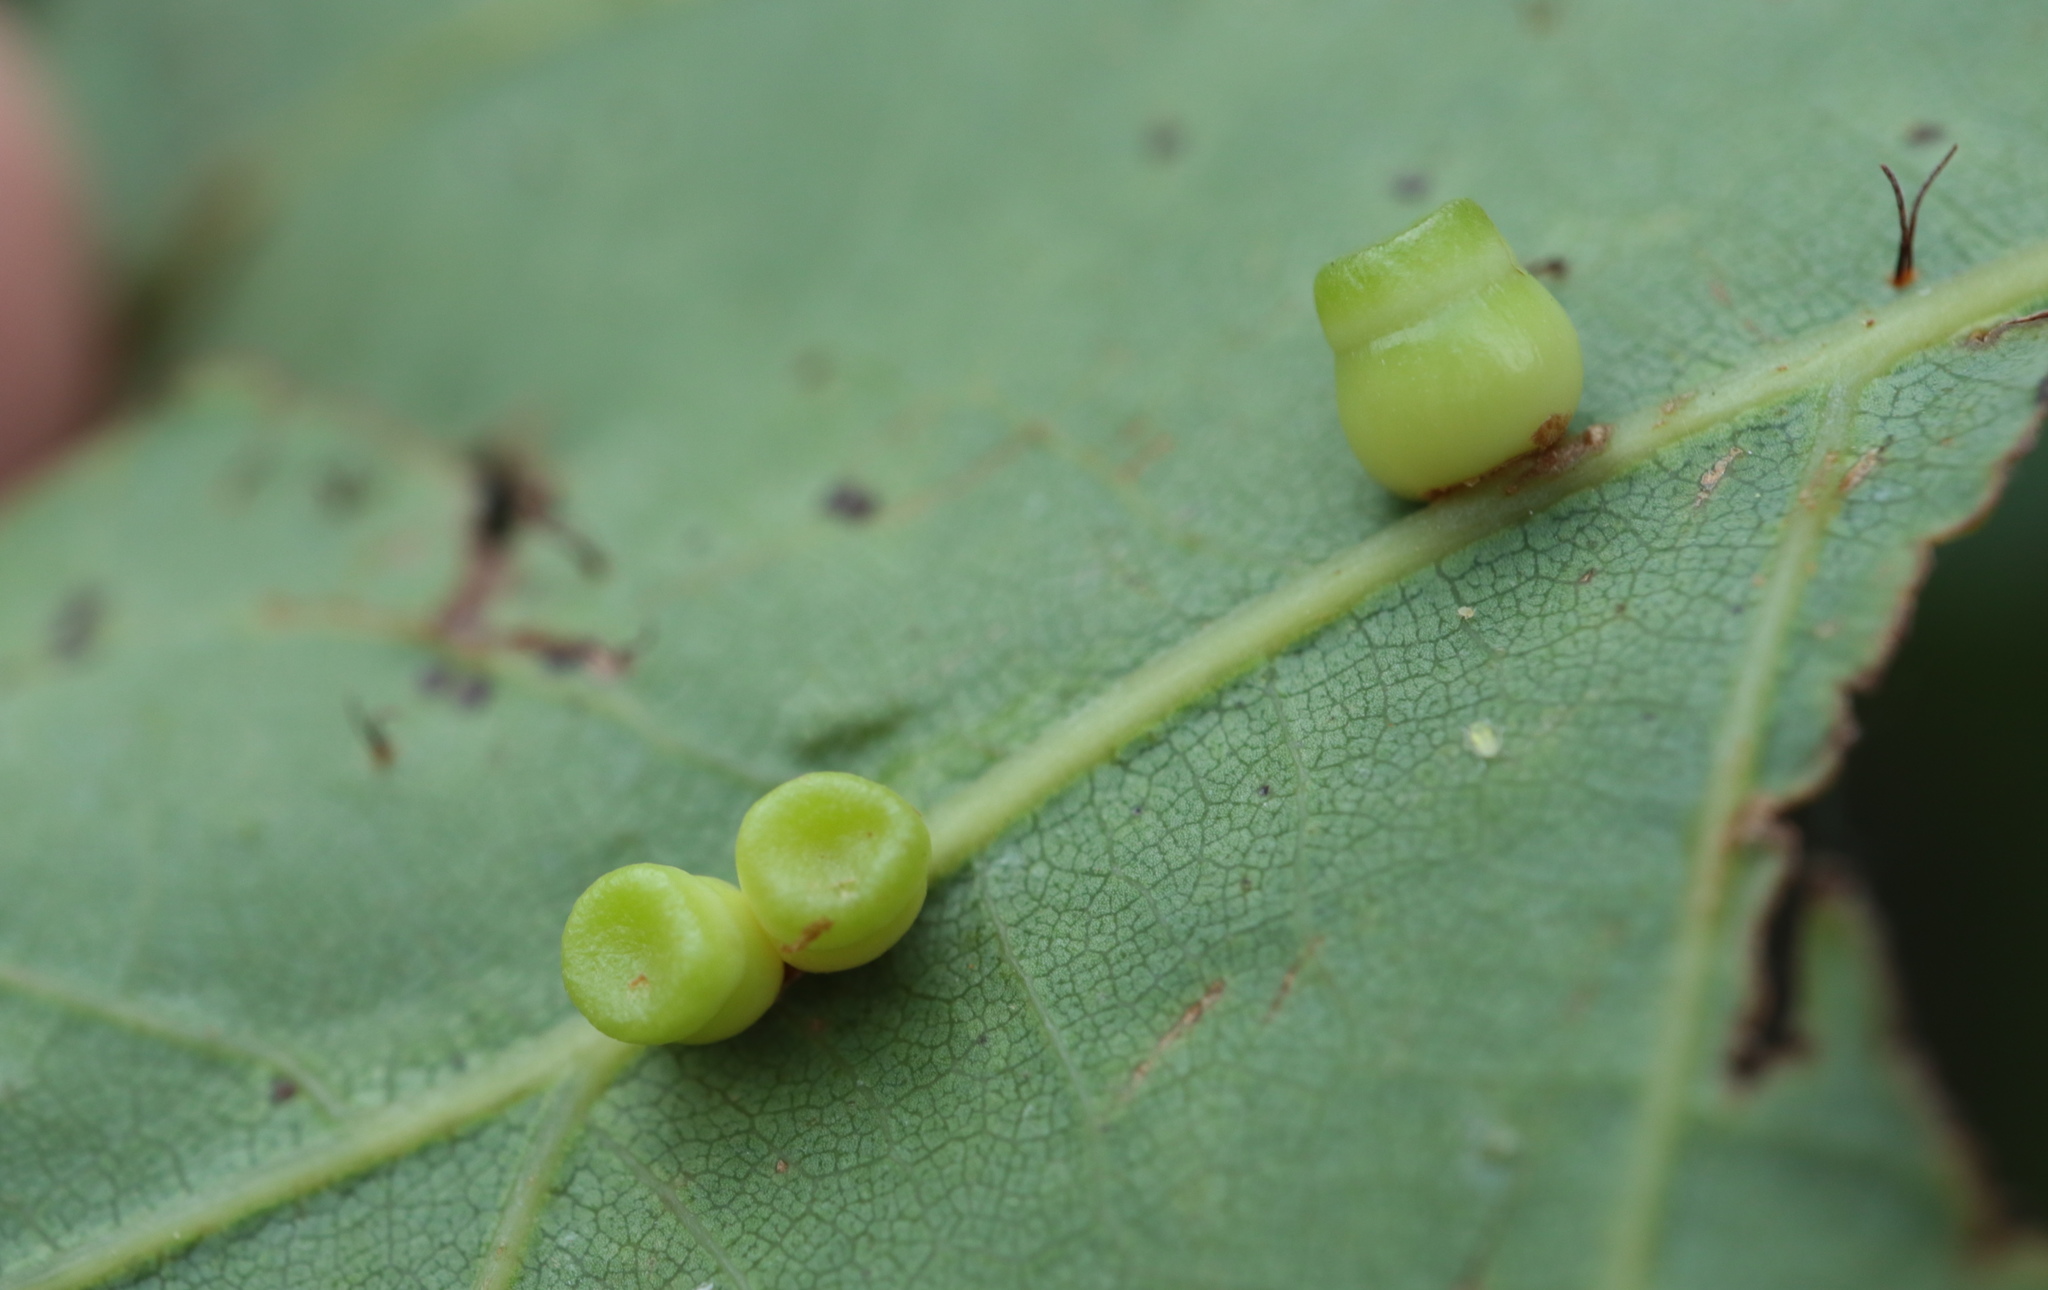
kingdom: Animalia
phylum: Arthropoda
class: Insecta
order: Hymenoptera
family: Cynipidae
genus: Kokkocynips
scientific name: Kokkocynips rileyi
